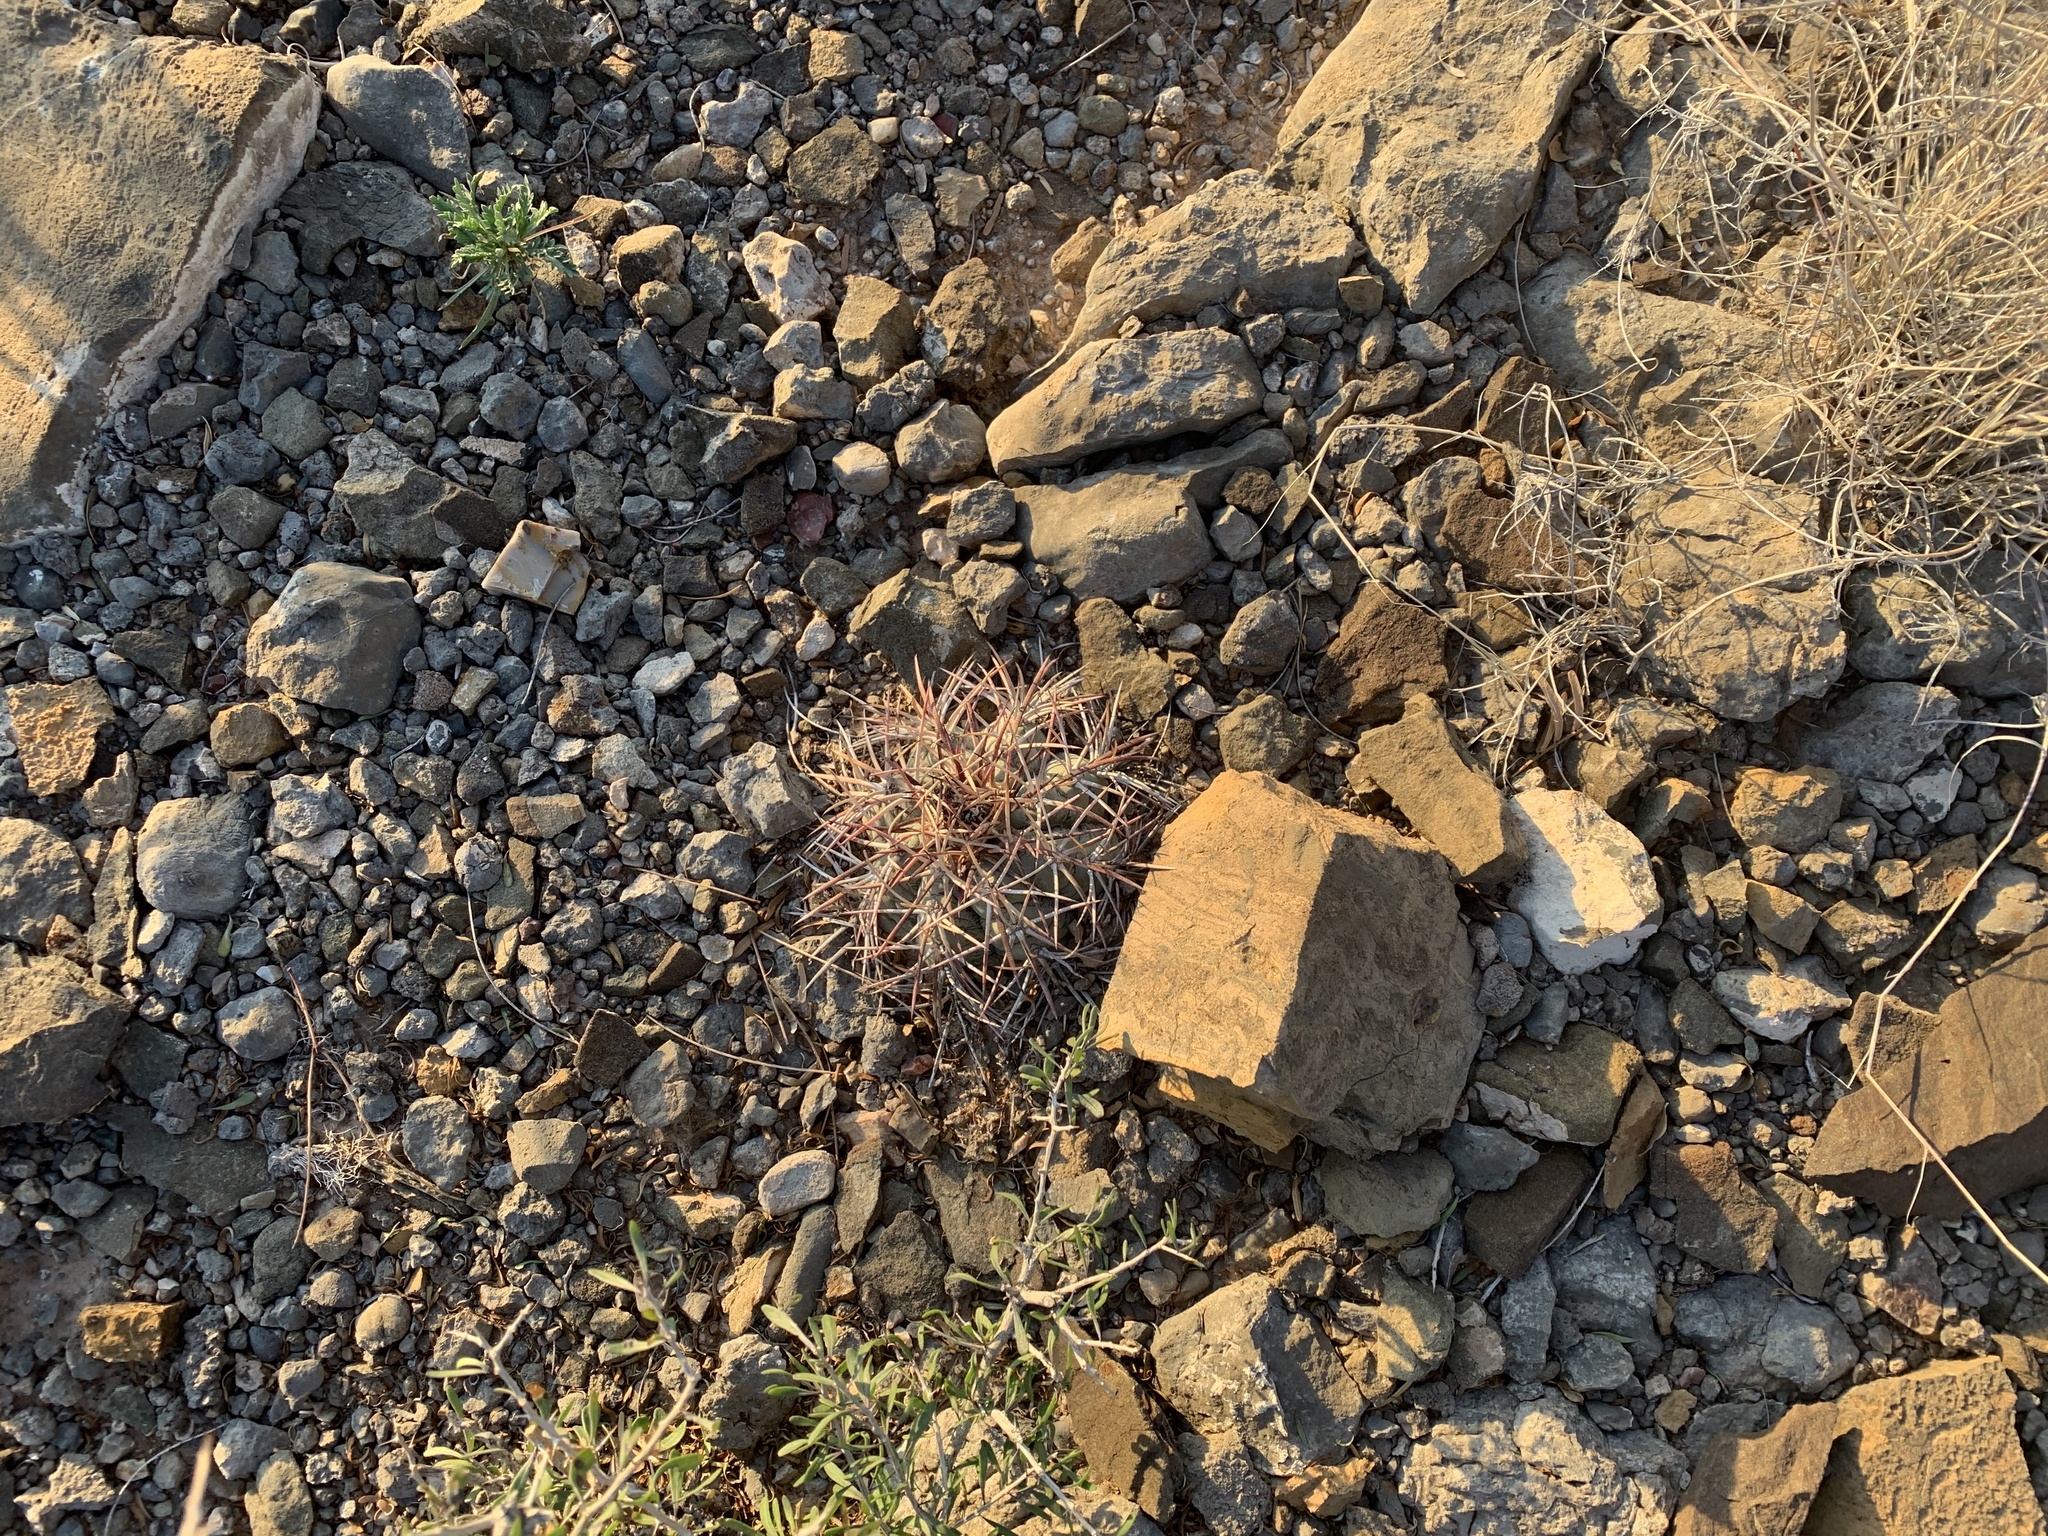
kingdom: Plantae
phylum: Tracheophyta
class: Magnoliopsida
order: Caryophyllales
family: Cactaceae
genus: Echinocactus
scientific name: Echinocactus horizonthalonius
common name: Devilshead
